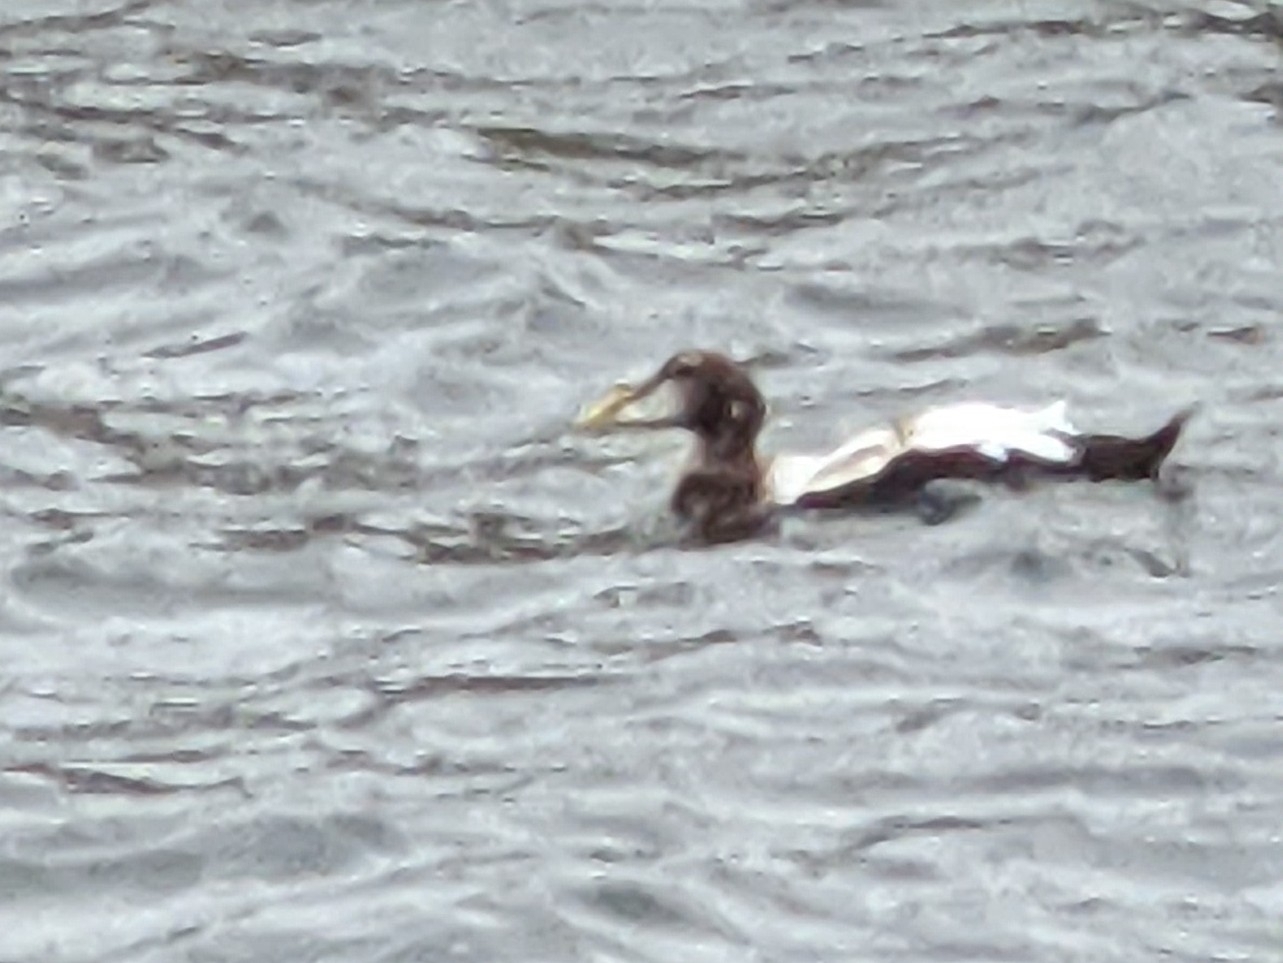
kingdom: Animalia
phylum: Chordata
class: Aves
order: Anseriformes
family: Anatidae
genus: Somateria
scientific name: Somateria mollissima
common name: Common eider
